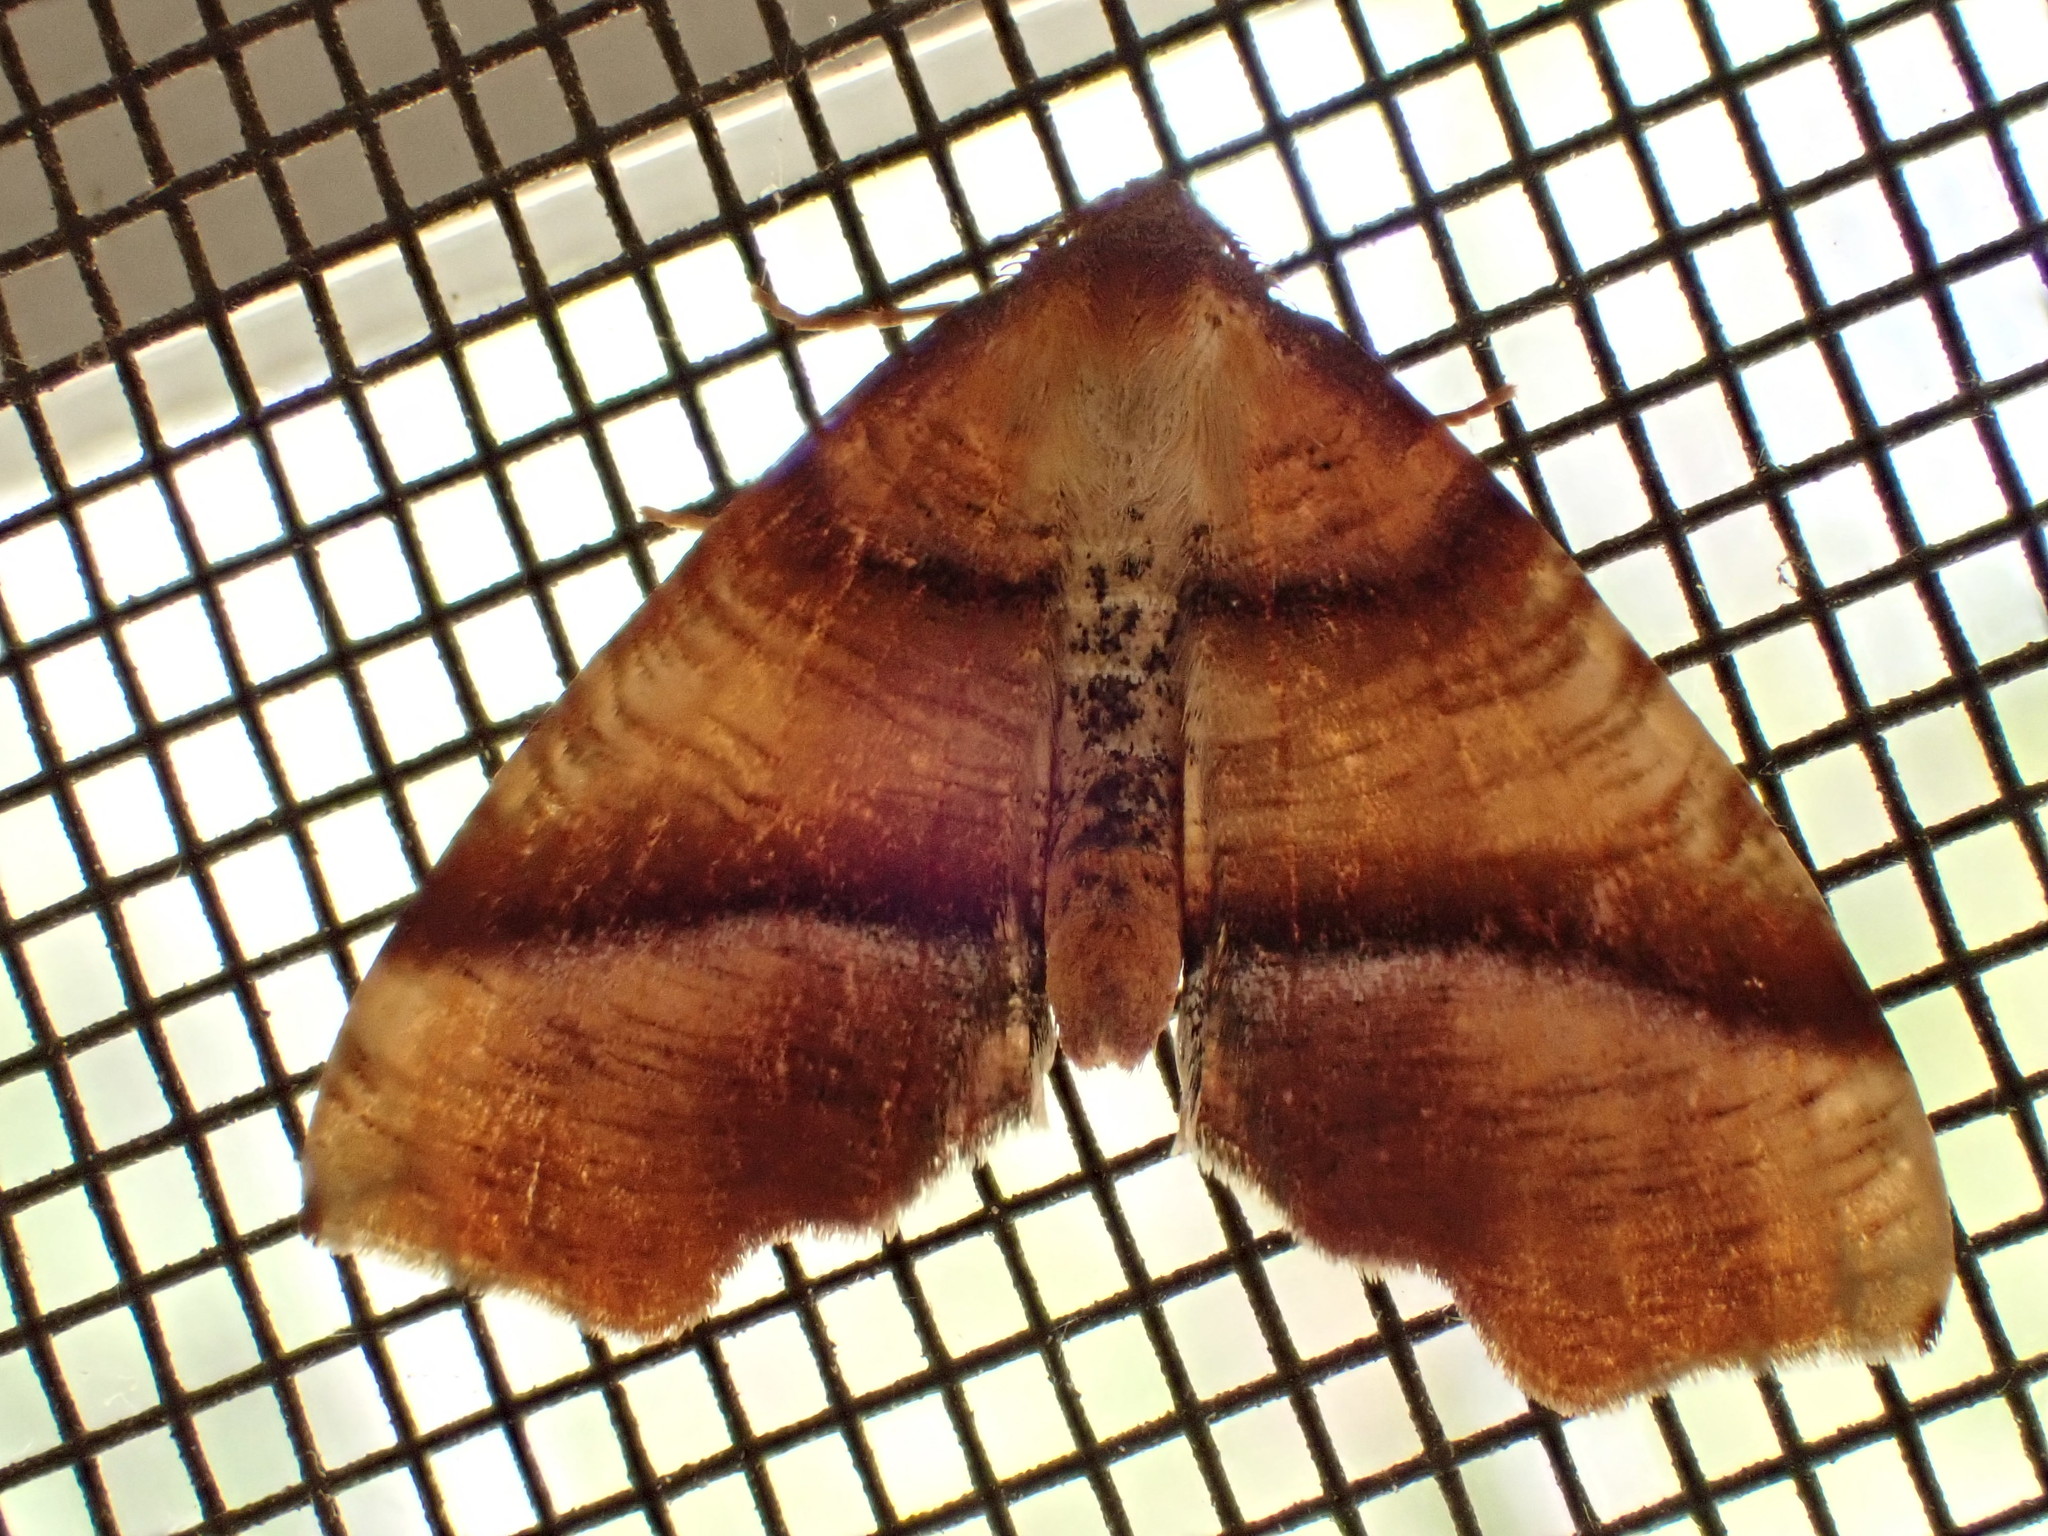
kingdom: Animalia
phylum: Arthropoda
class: Insecta
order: Lepidoptera
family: Geometridae
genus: Plagodis
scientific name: Plagodis phlogosaria
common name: Straight-lined plagodis
